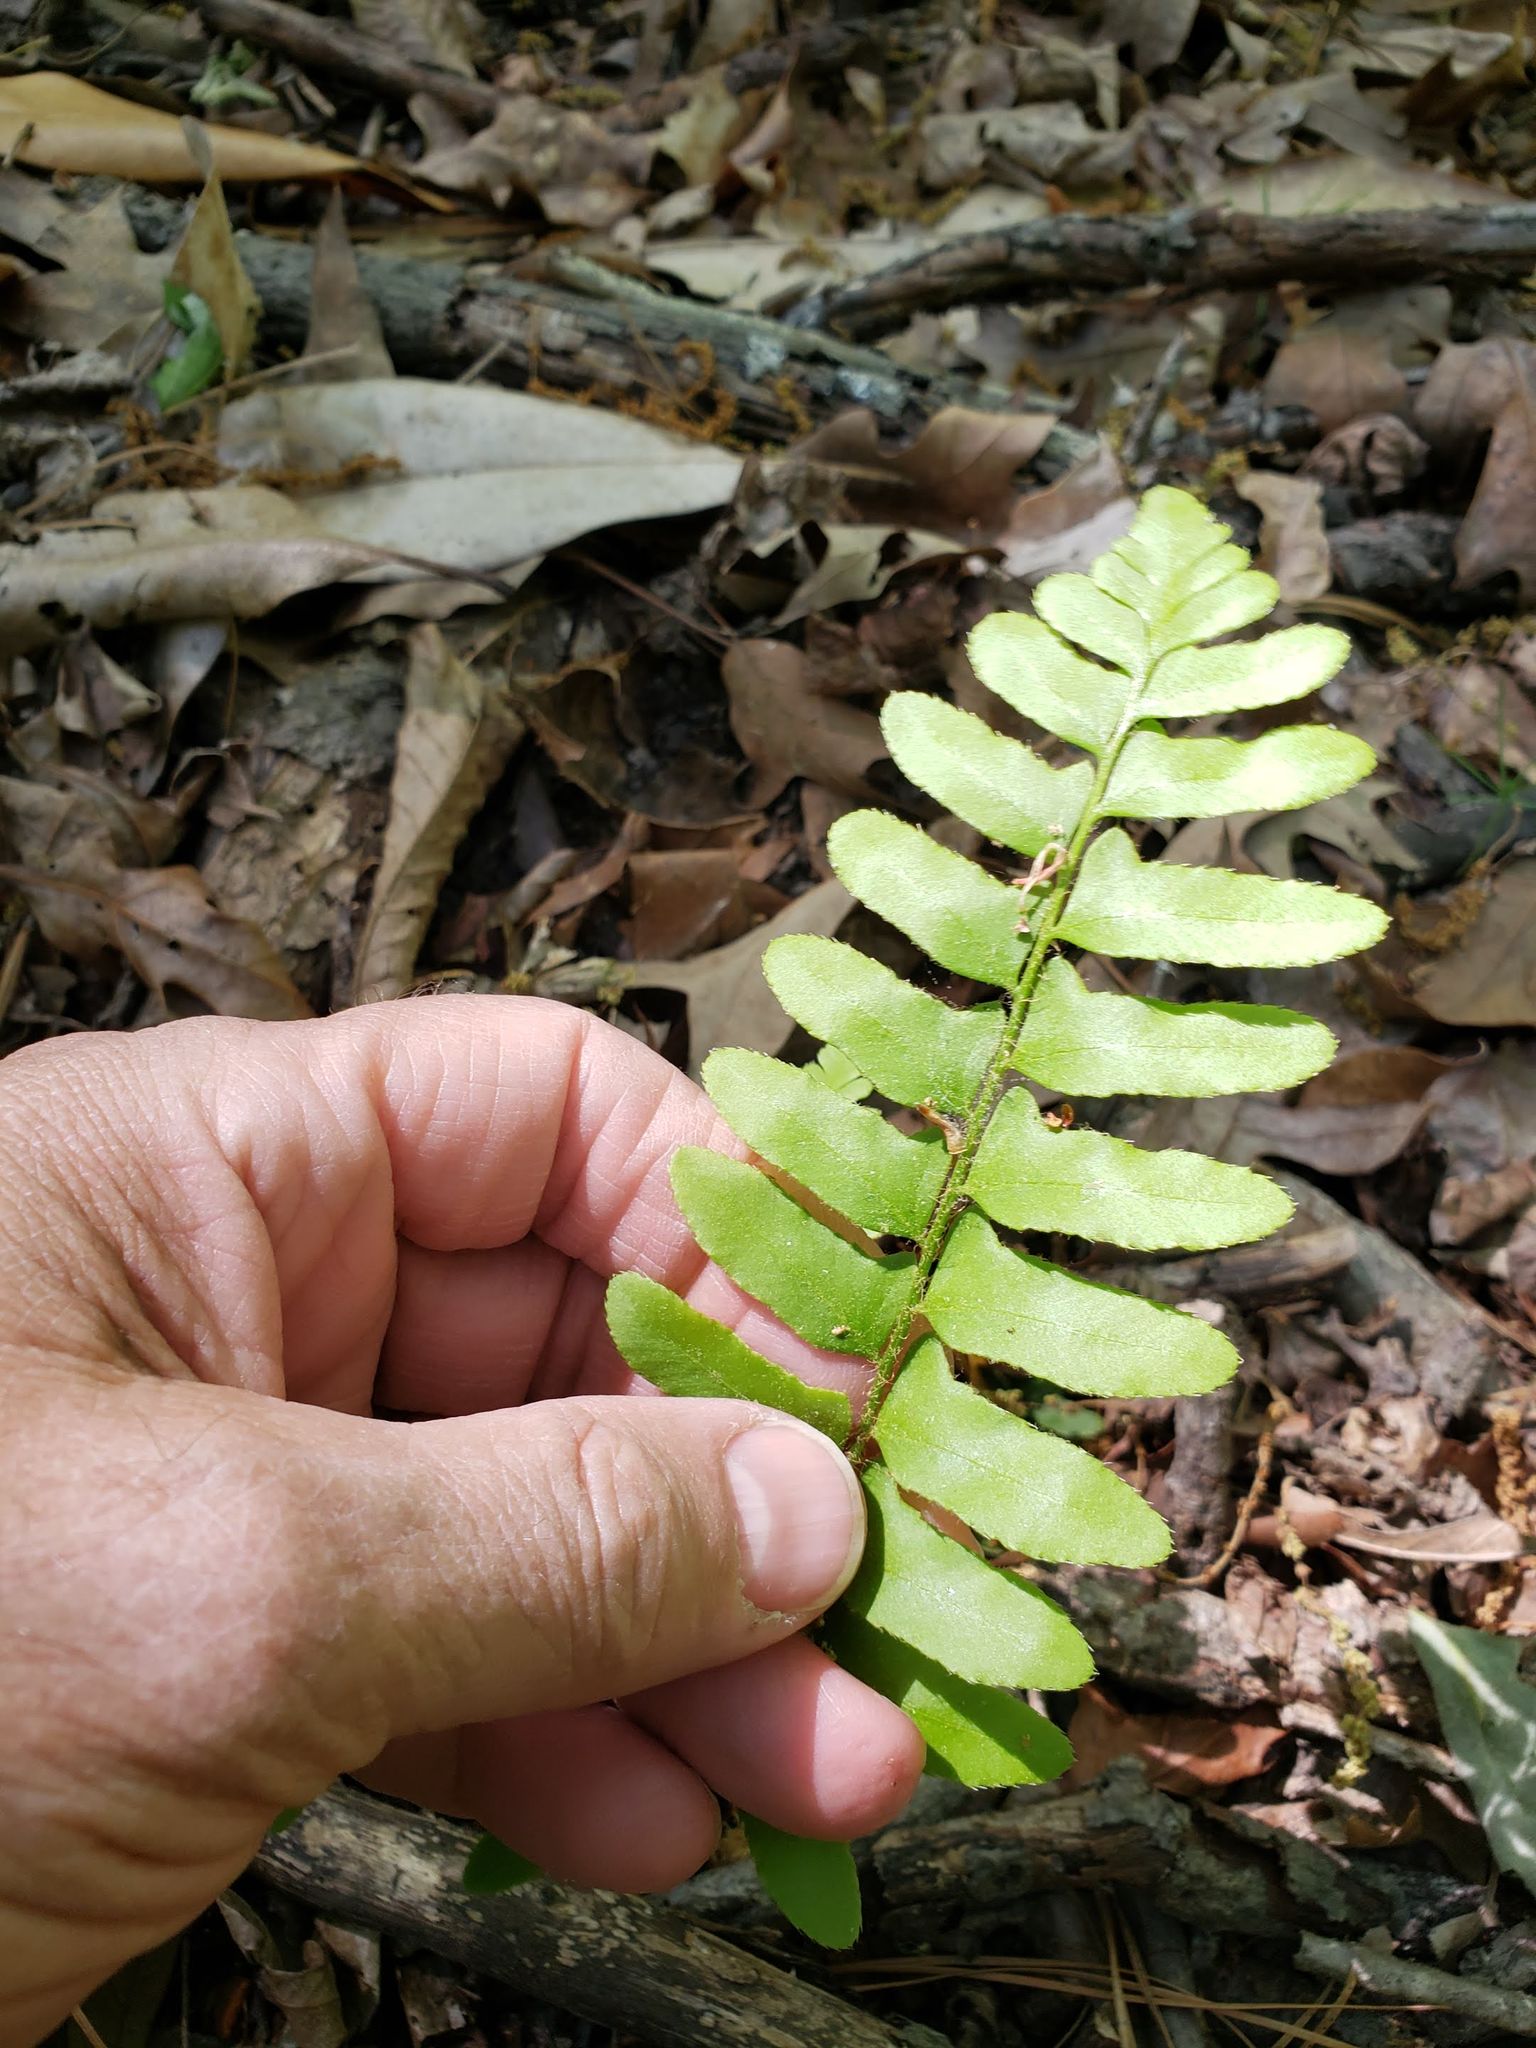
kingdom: Plantae
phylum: Tracheophyta
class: Polypodiopsida
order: Polypodiales
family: Dryopteridaceae
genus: Polystichum
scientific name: Polystichum acrostichoides
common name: Christmas fern
